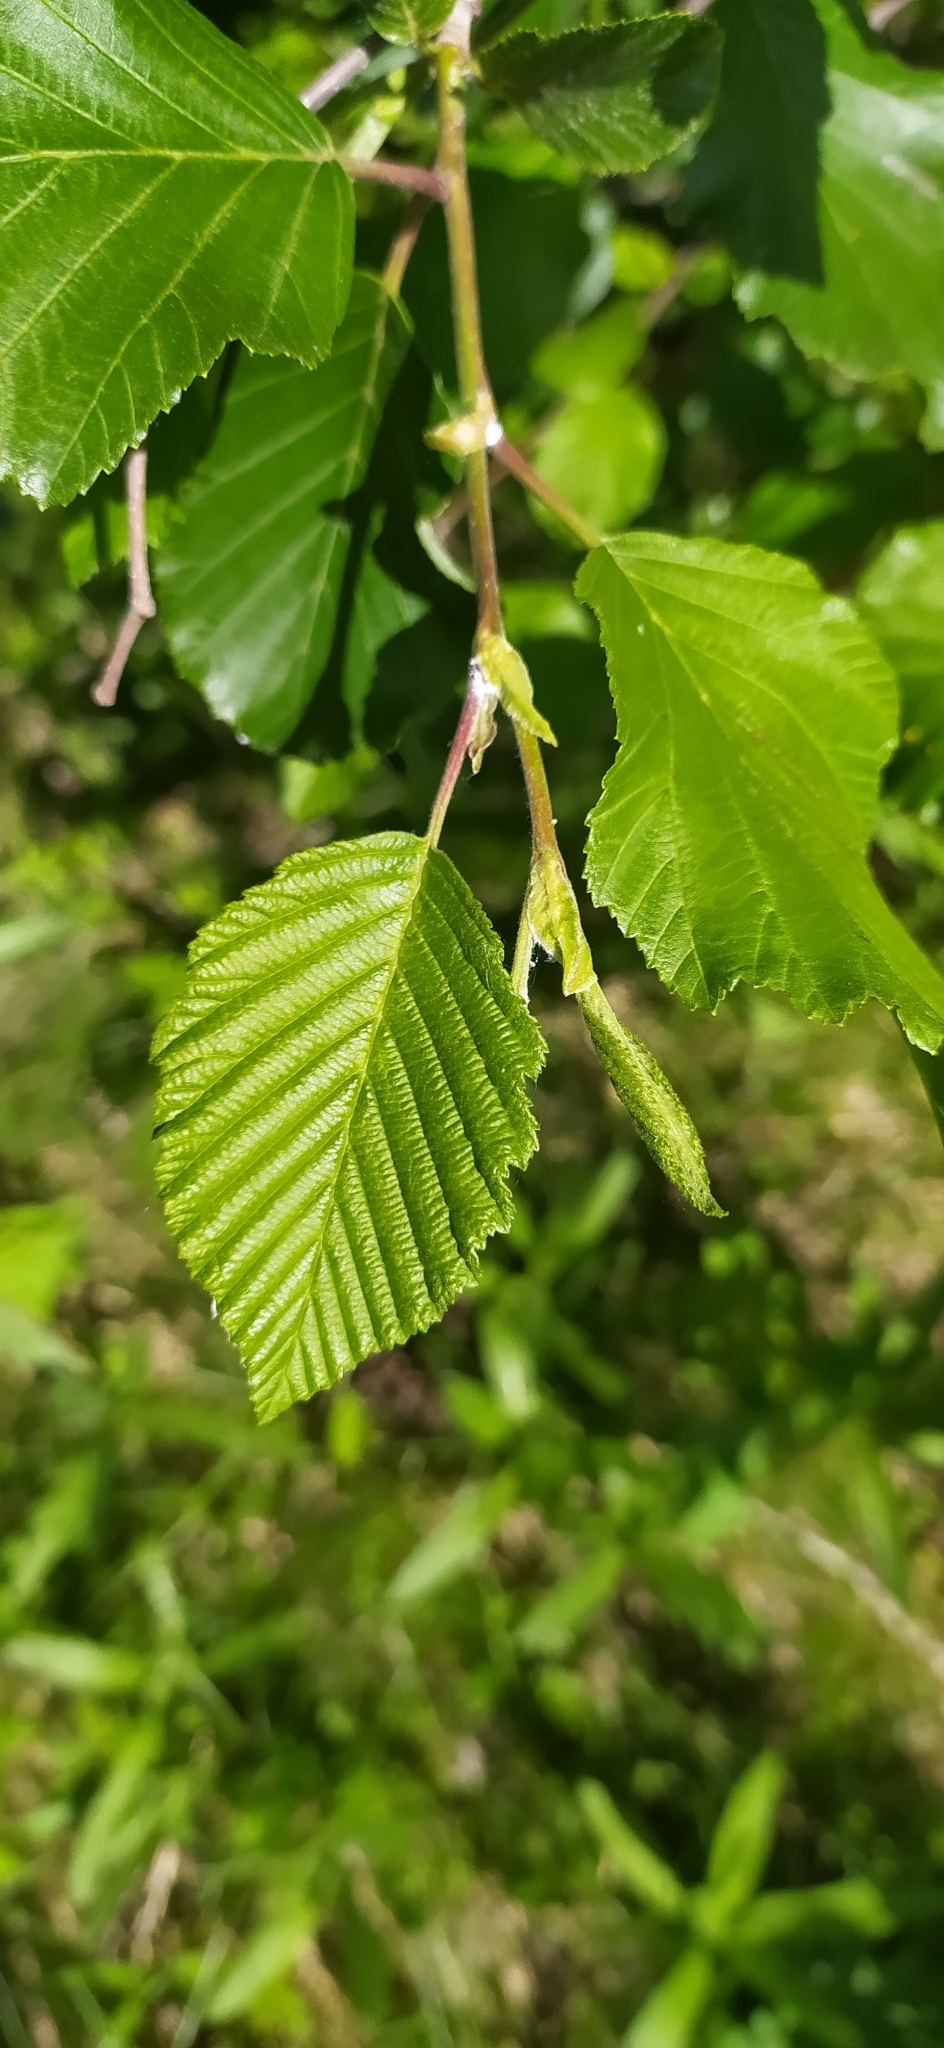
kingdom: Plantae
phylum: Tracheophyta
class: Magnoliopsida
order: Fagales
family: Betulaceae
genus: Alnus
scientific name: Alnus incana
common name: Grey alder
